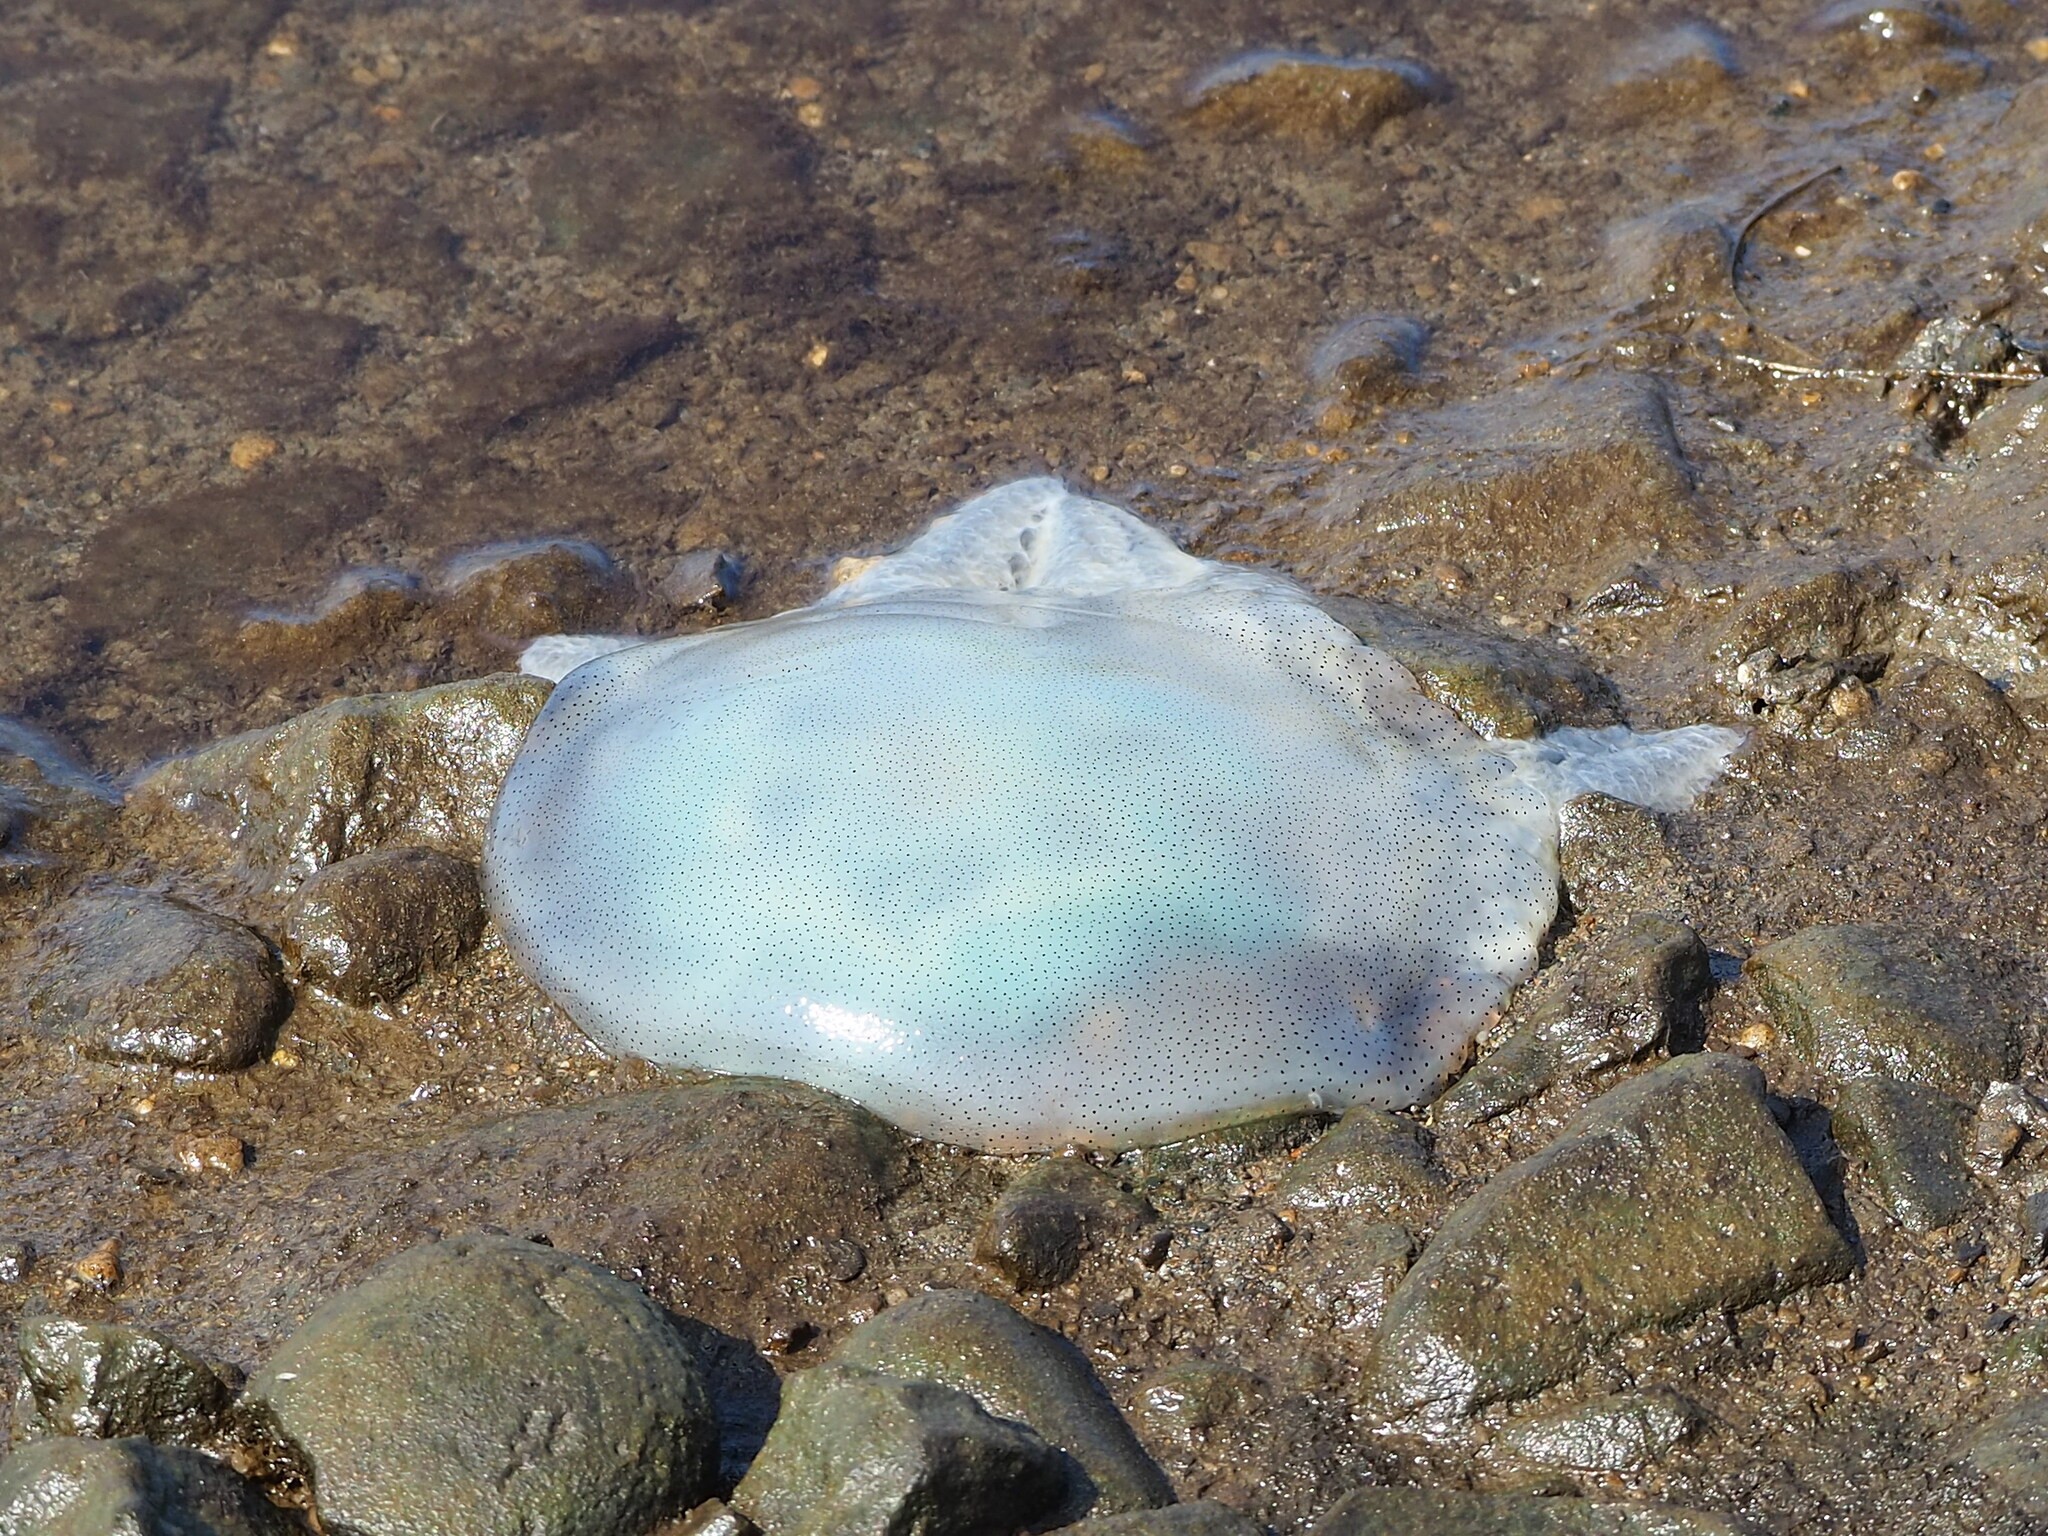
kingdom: Animalia
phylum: Cnidaria
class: Scyphozoa
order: Rhizostomeae
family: Catostylidae
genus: Acromitus
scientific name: Acromitus flagellatus
